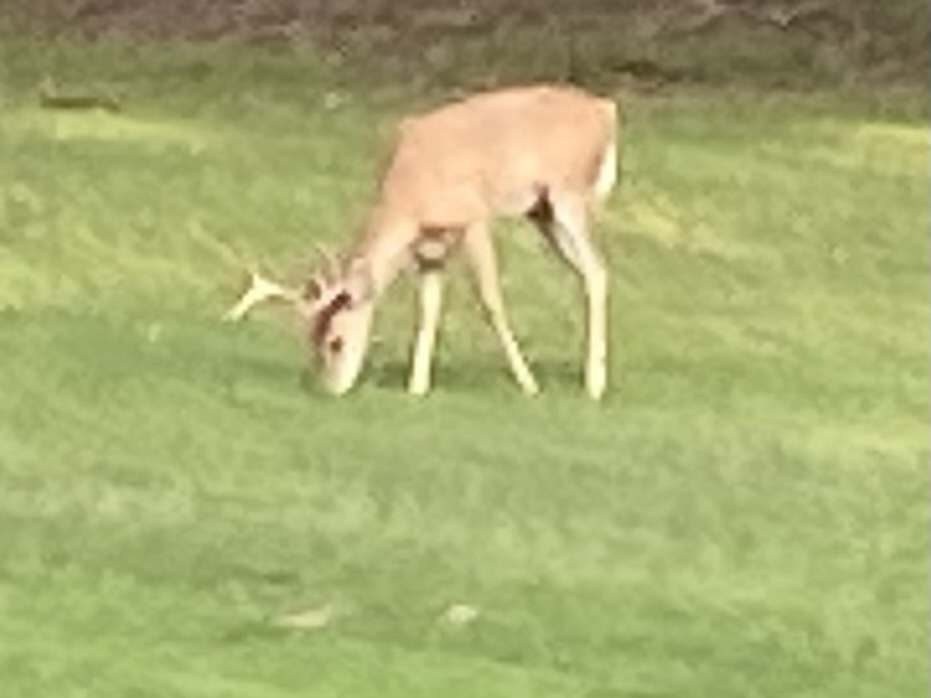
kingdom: Animalia
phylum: Chordata
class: Mammalia
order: Artiodactyla
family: Cervidae
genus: Odocoileus
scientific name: Odocoileus virginianus
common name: White-tailed deer
